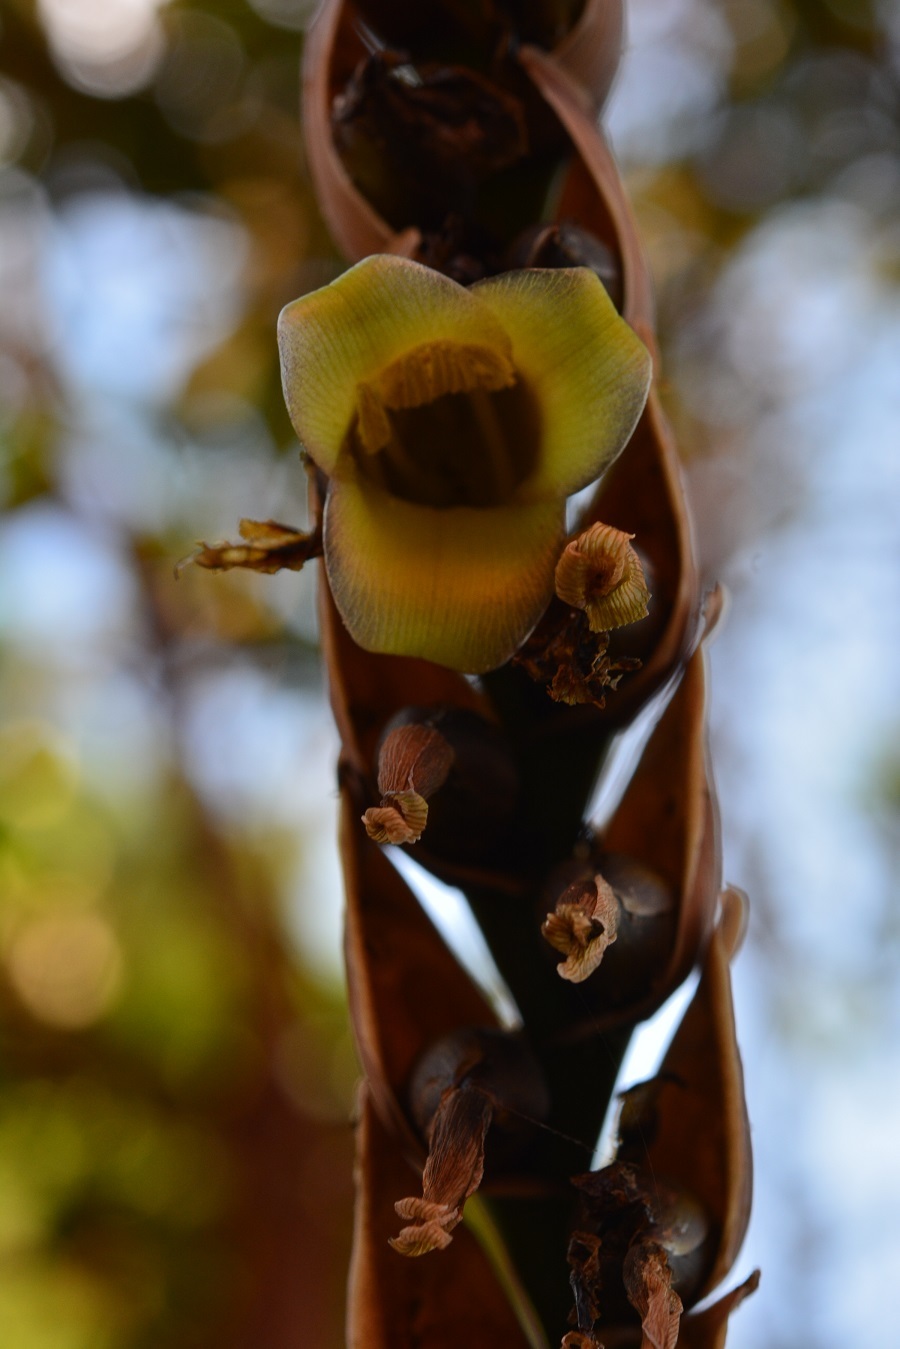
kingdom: Plantae
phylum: Tracheophyta
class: Liliopsida
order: Poales
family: Bromeliaceae
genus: Werauhia
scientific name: Werauhia werckleana
